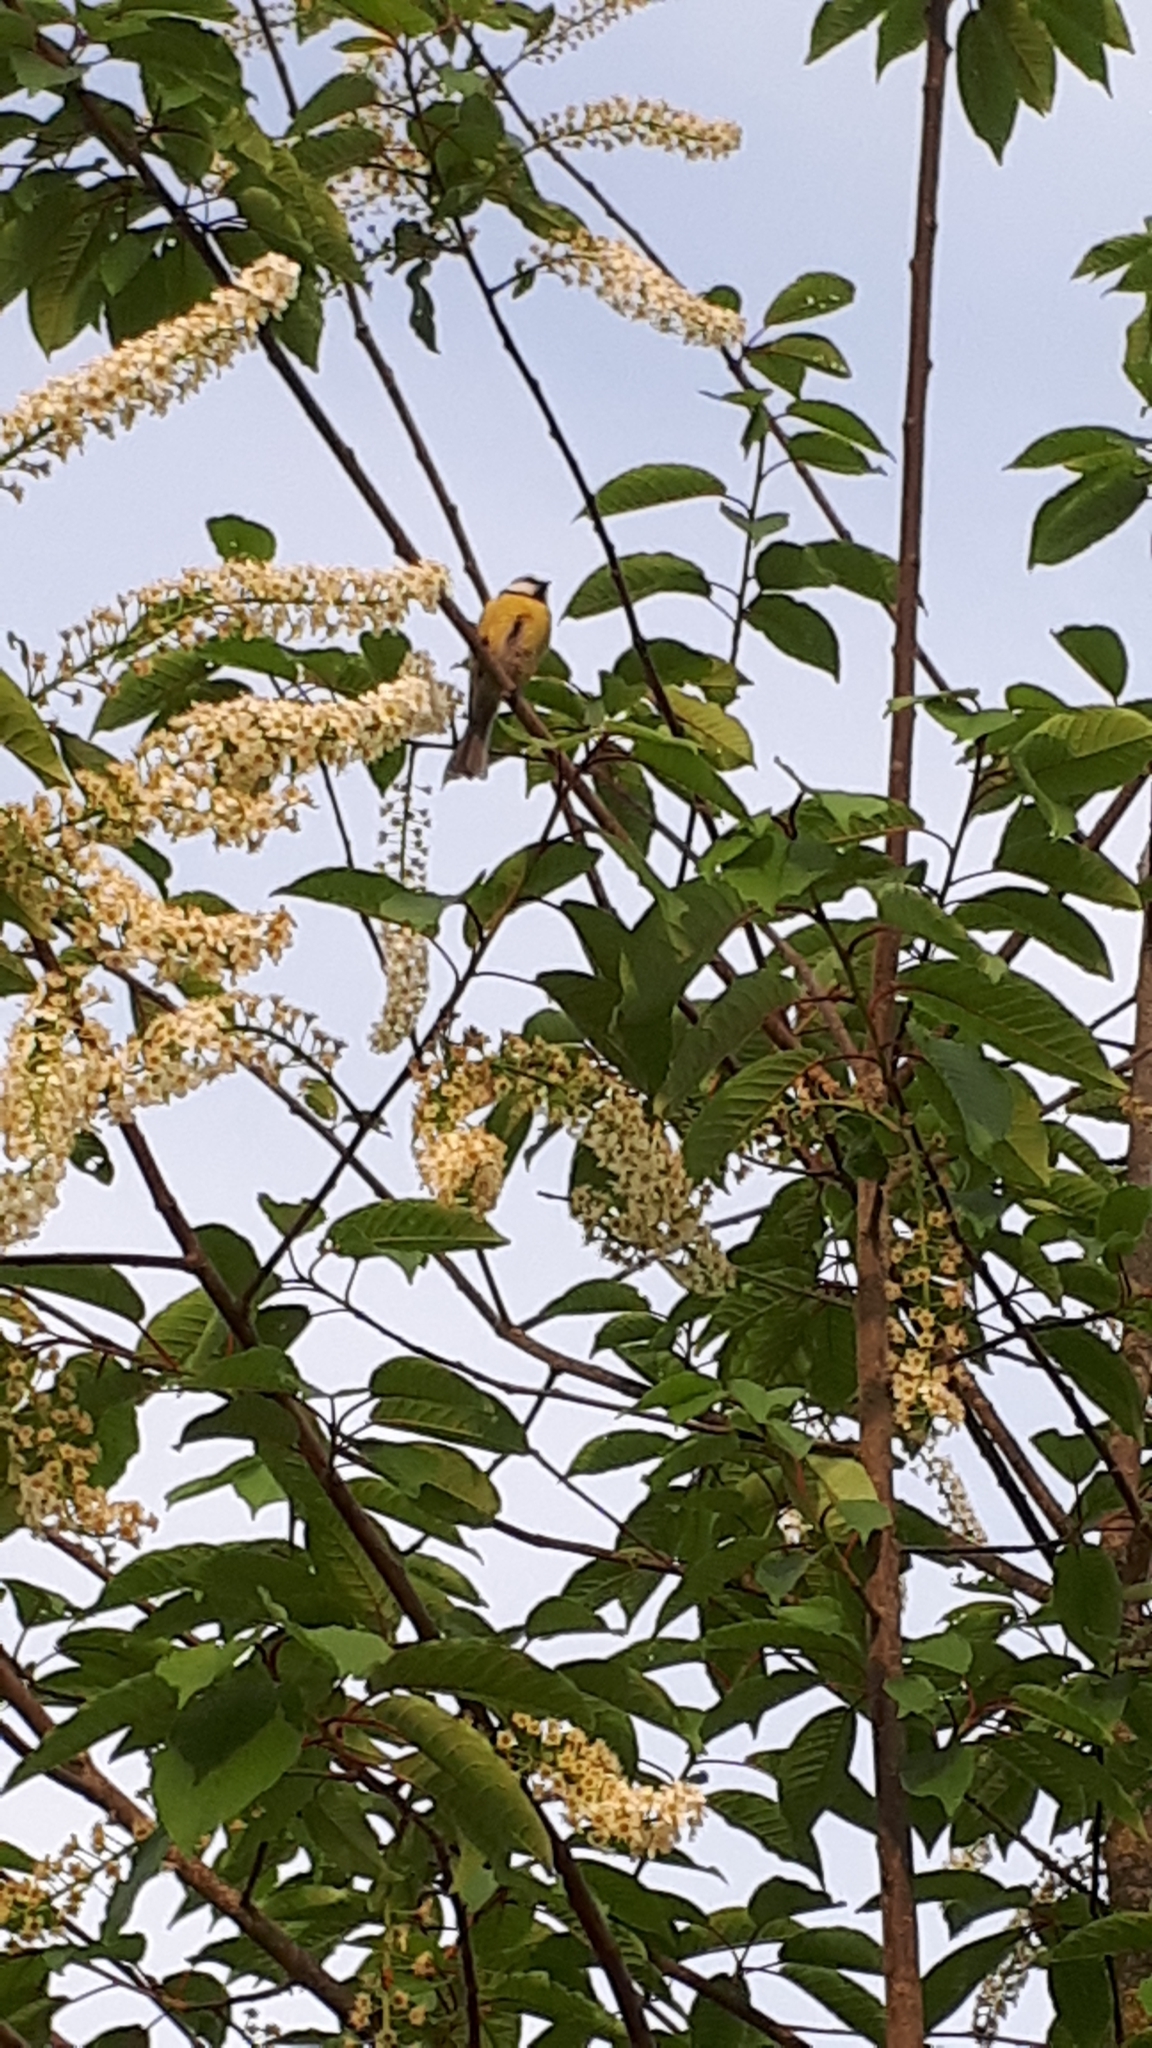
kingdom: Animalia
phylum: Chordata
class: Aves
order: Passeriformes
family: Paridae
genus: Cyanistes
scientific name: Cyanistes caeruleus
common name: Eurasian blue tit
